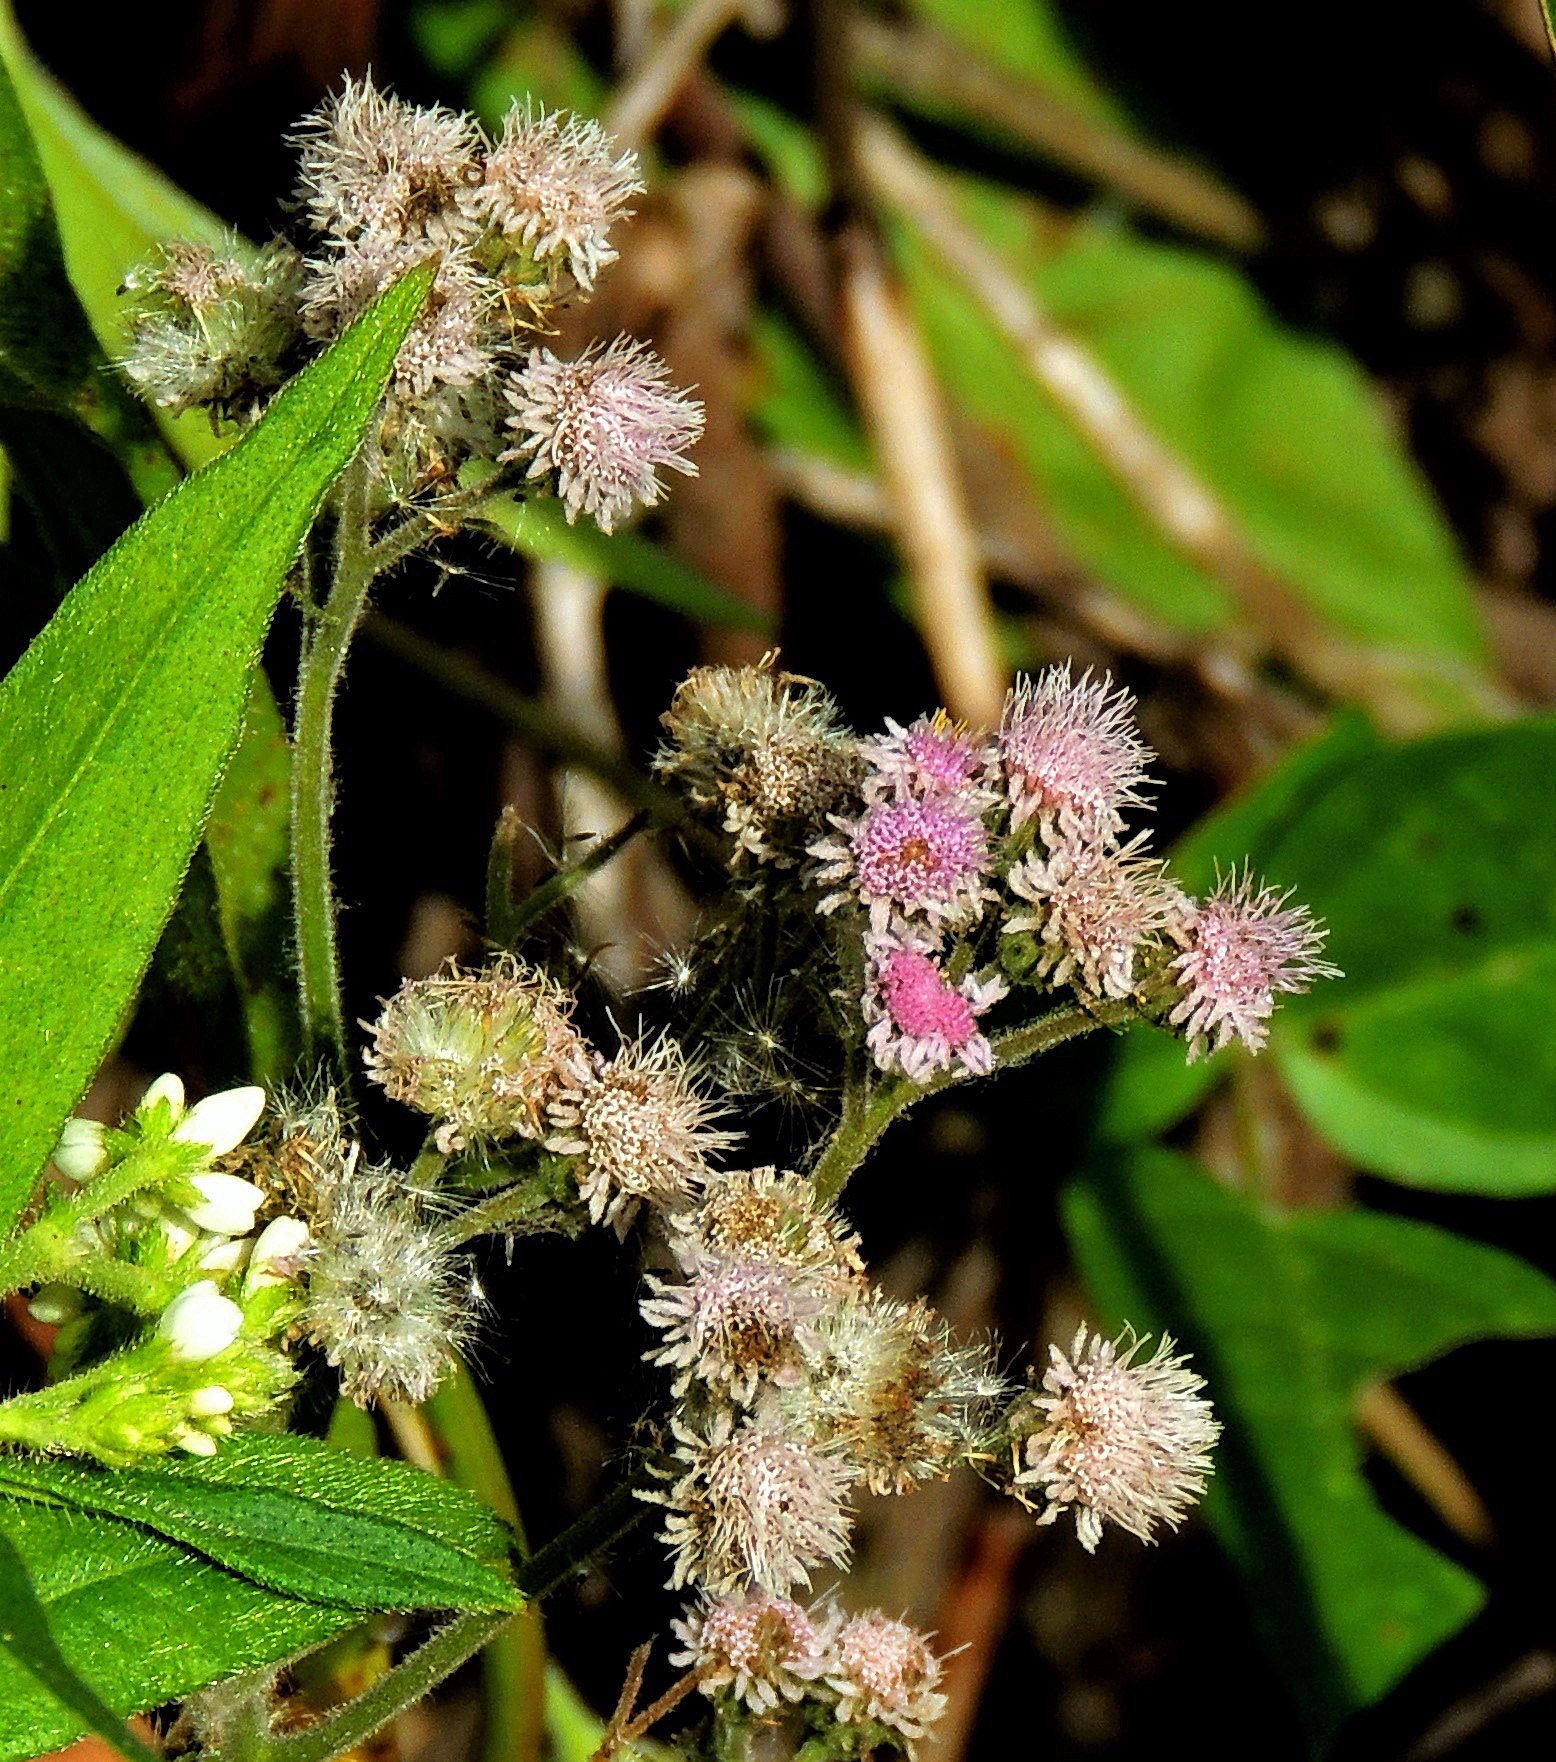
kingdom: Plantae
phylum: Tracheophyta
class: Magnoliopsida
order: Asterales
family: Asteraceae
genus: Urolepis
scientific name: Urolepis hecatantha
